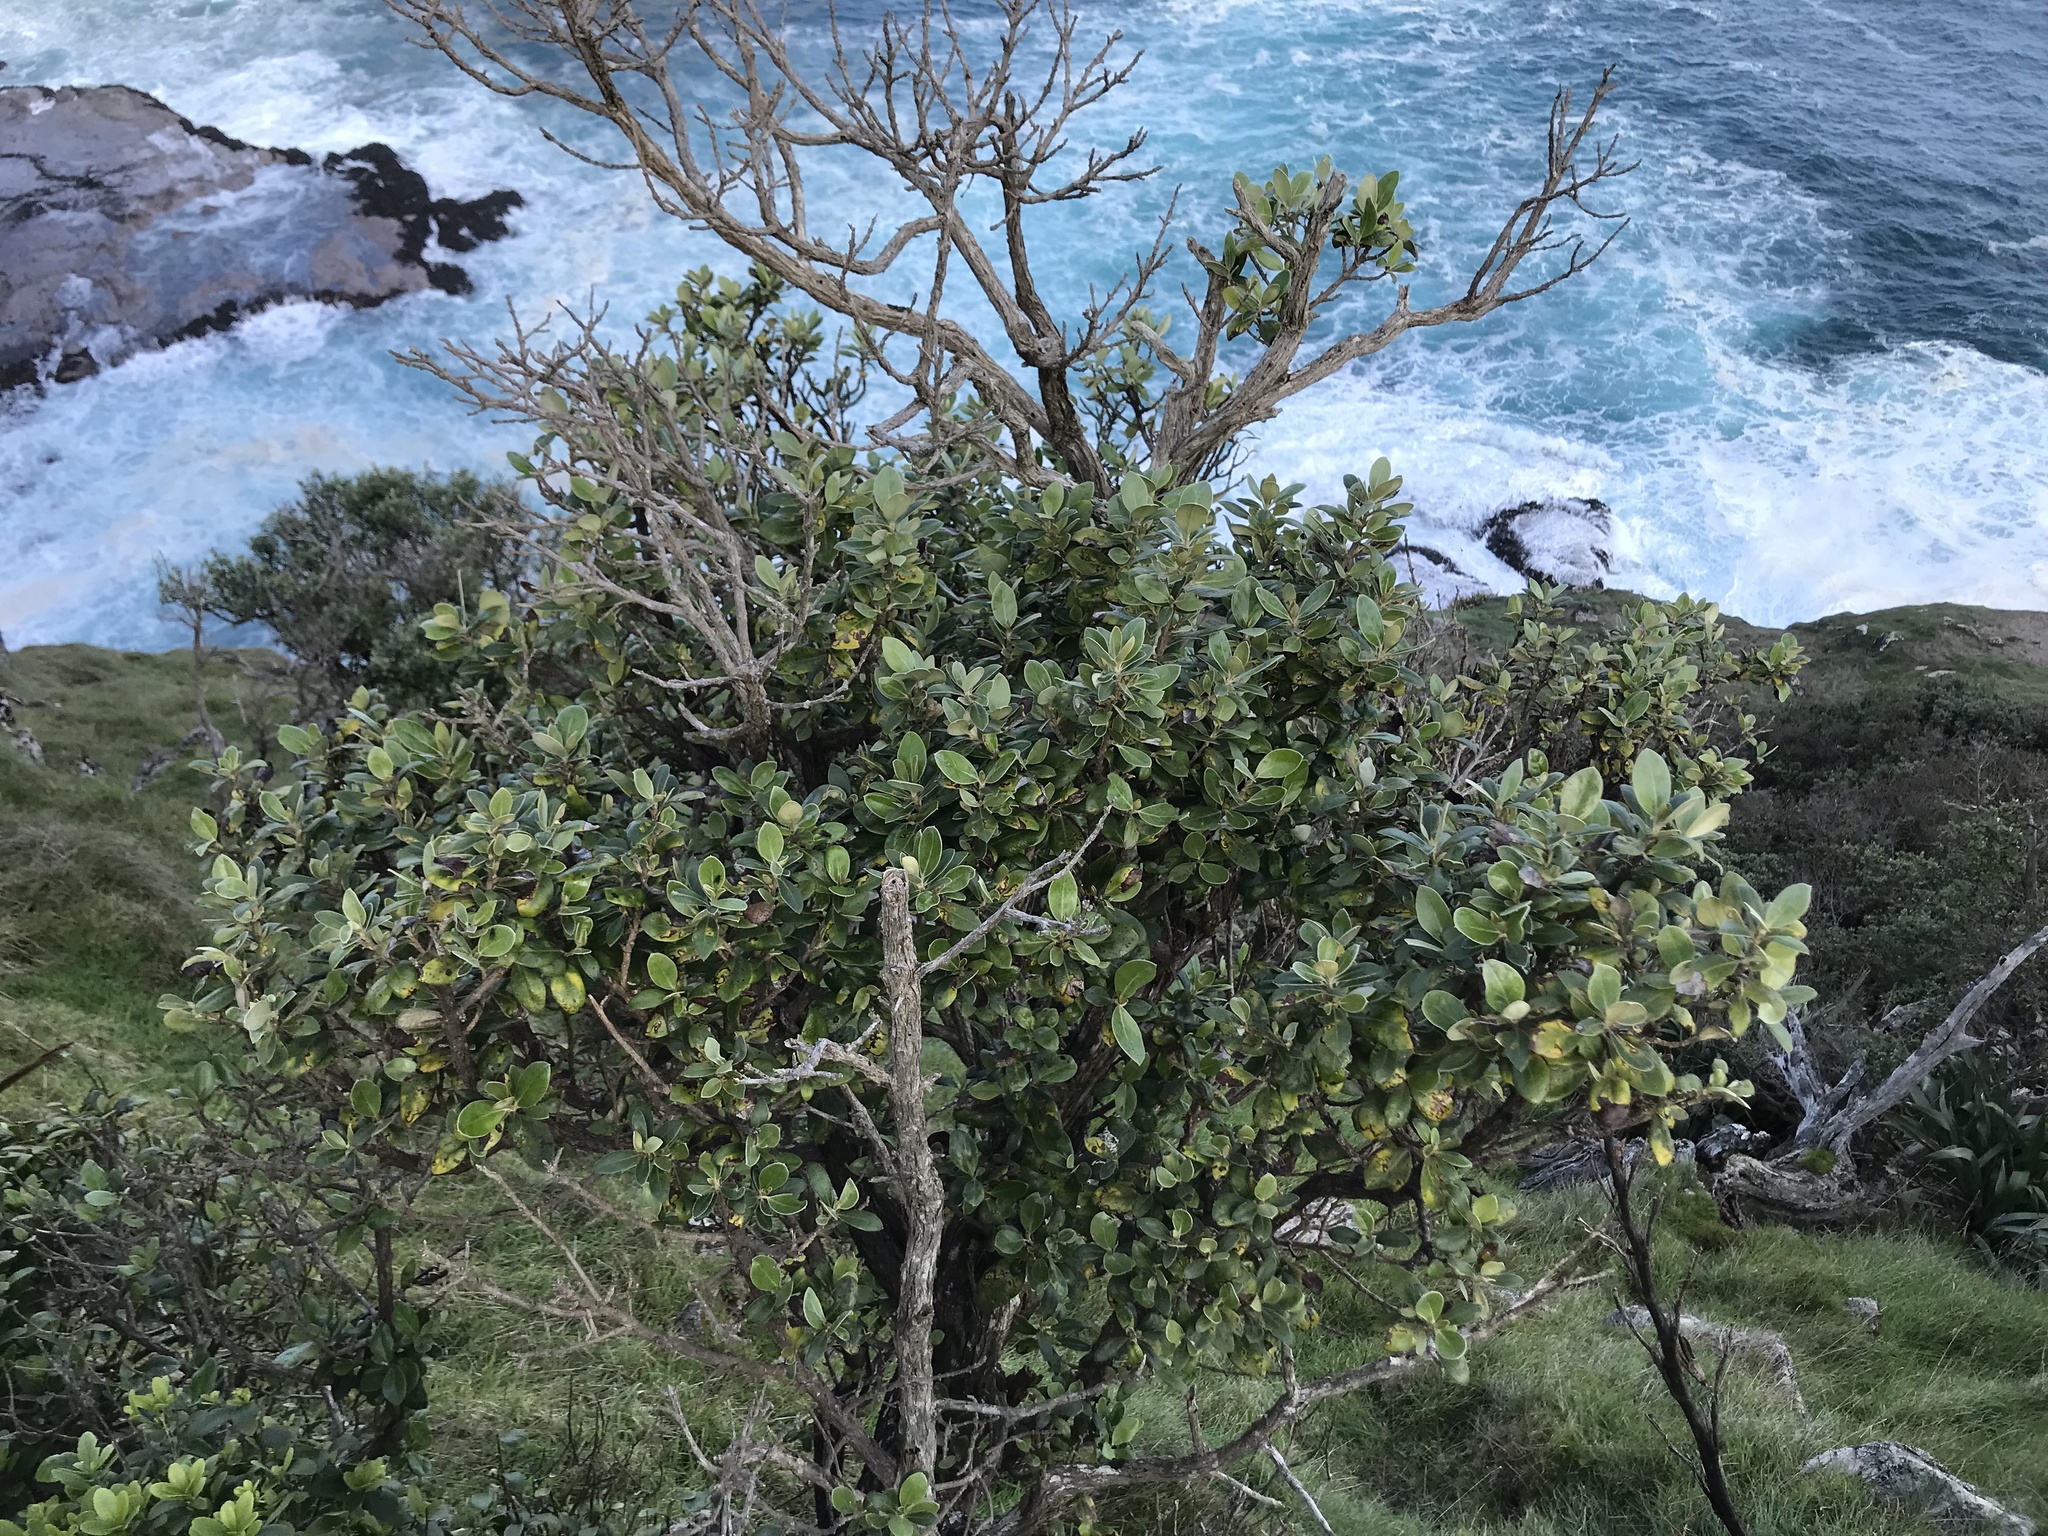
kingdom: Plantae
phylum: Tracheophyta
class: Magnoliopsida
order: Asterales
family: Asteraceae
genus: Olearia
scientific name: Olearia traversiorum
